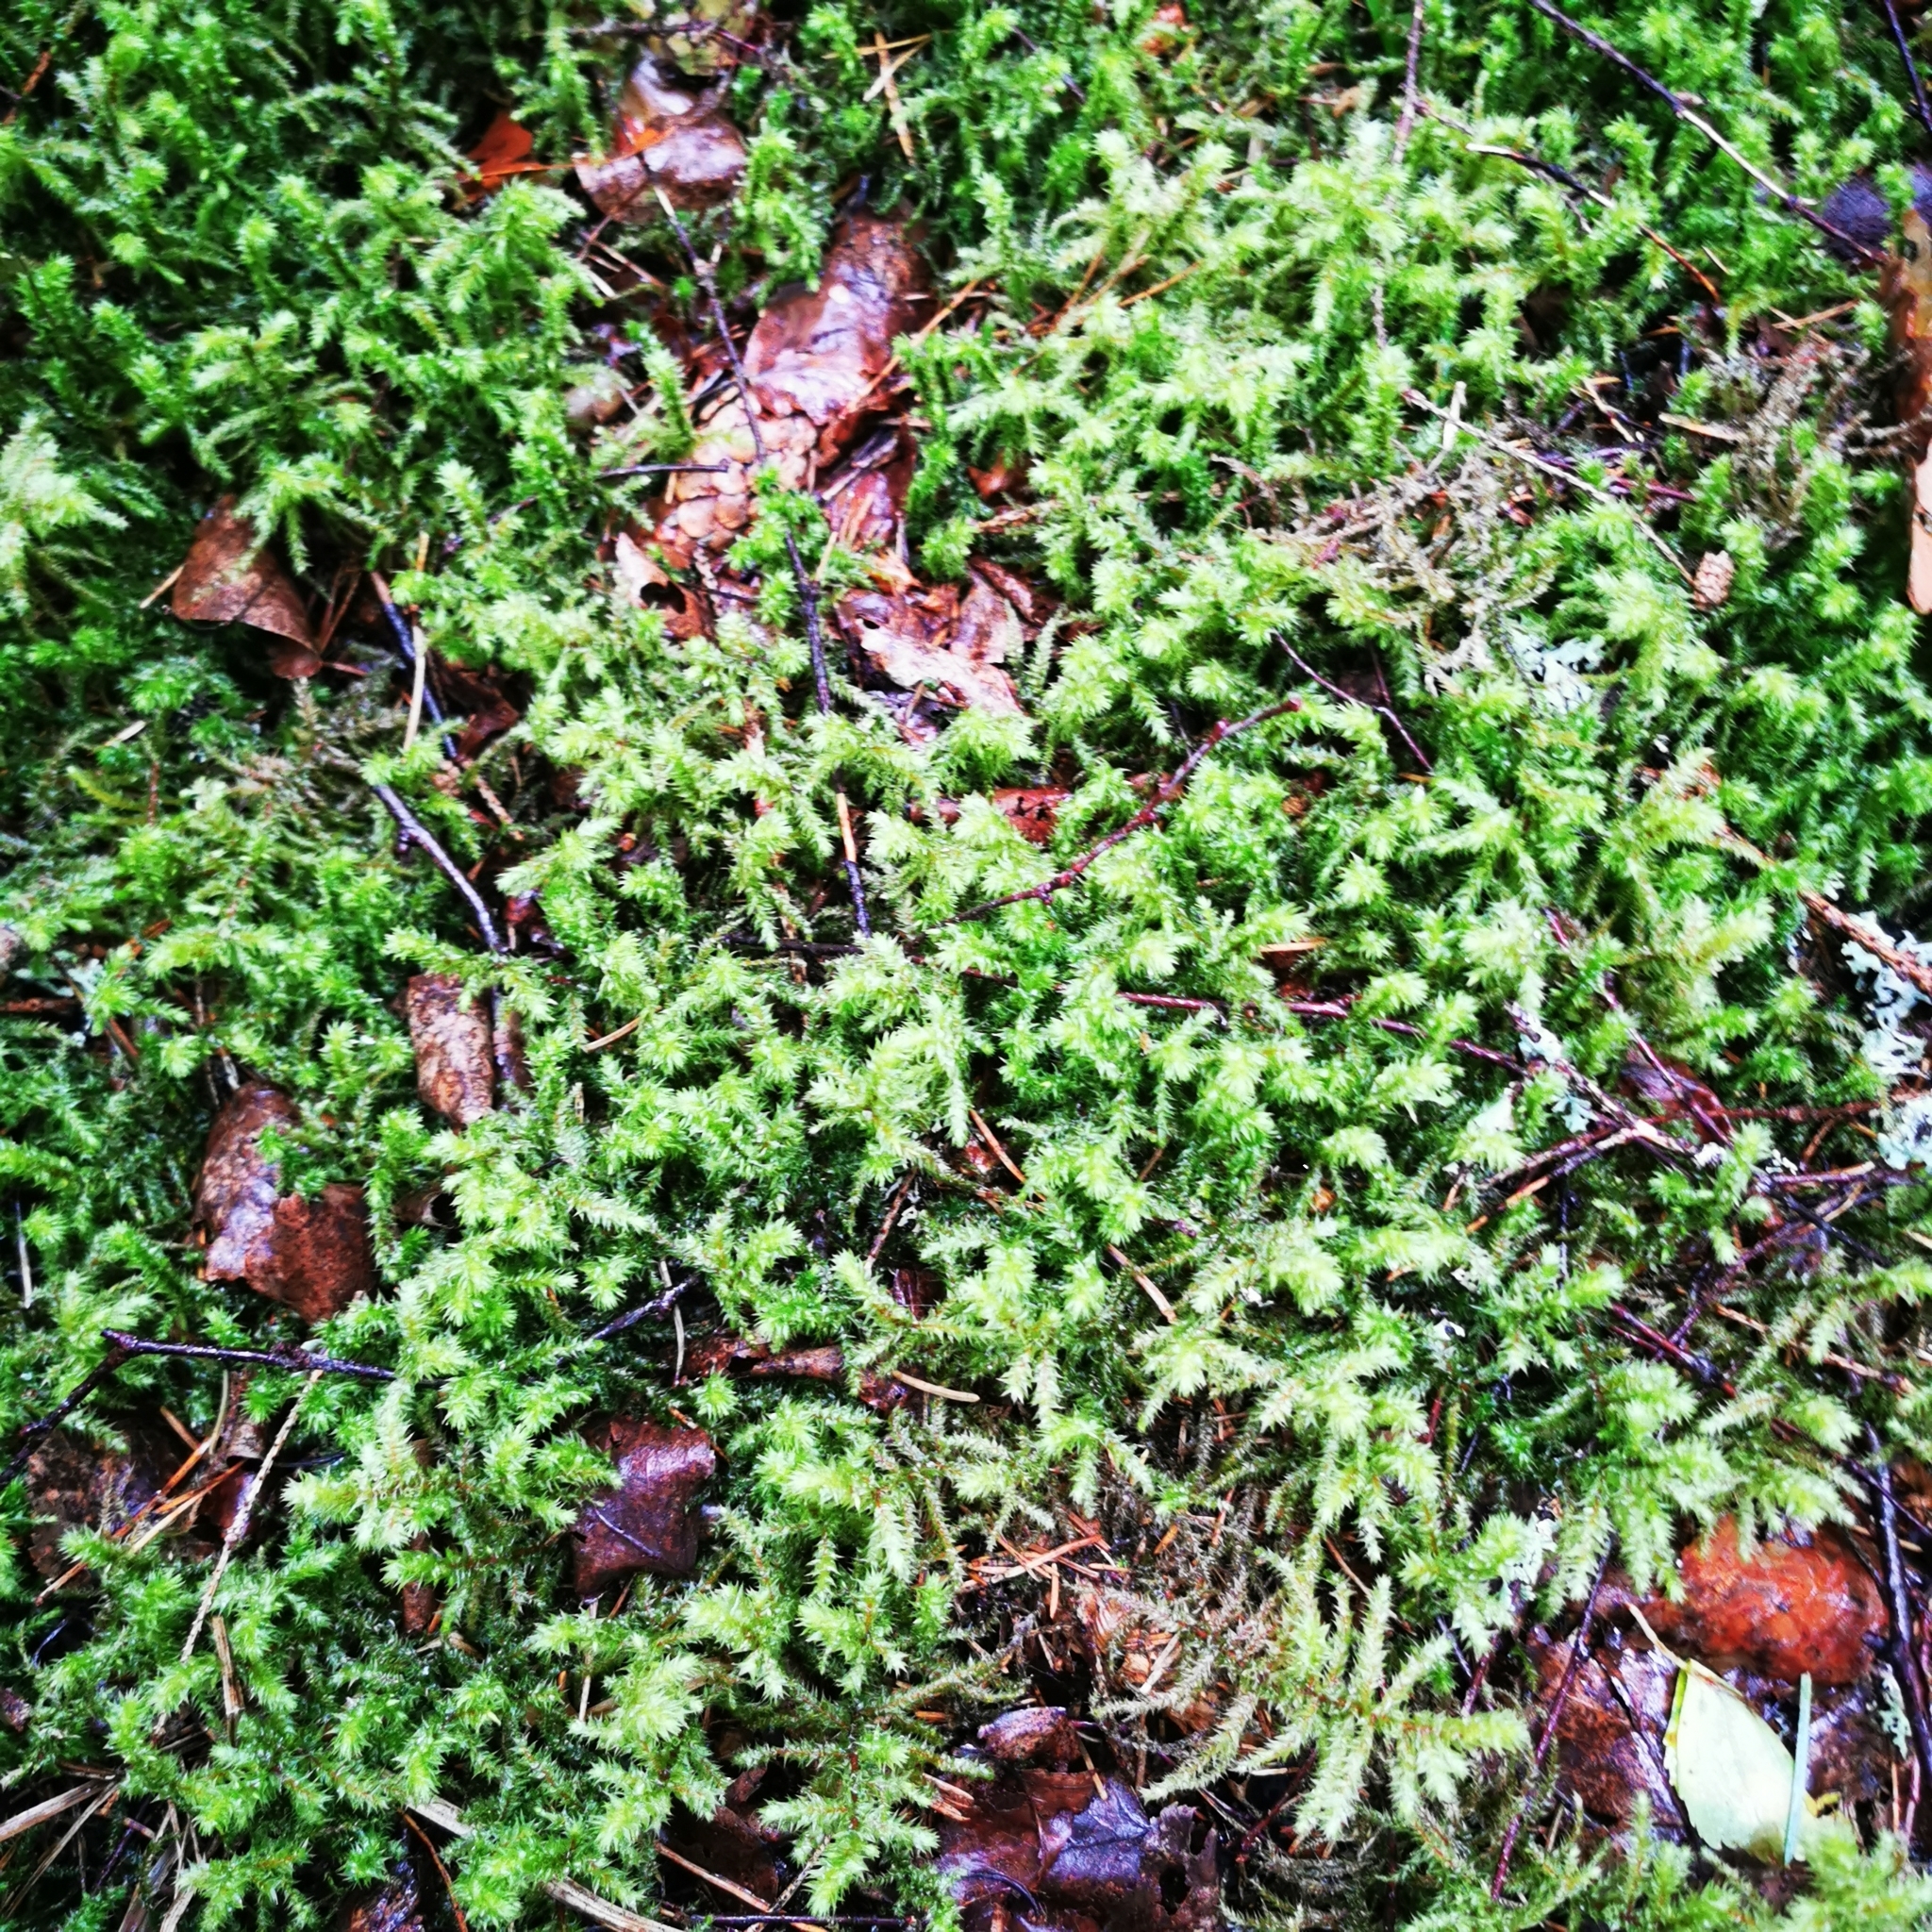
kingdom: Plantae
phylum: Bryophyta
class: Bryopsida
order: Hypnales
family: Hylocomiaceae
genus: Hylocomiadelphus
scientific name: Hylocomiadelphus triquetrus
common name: Rough goose neck moss
